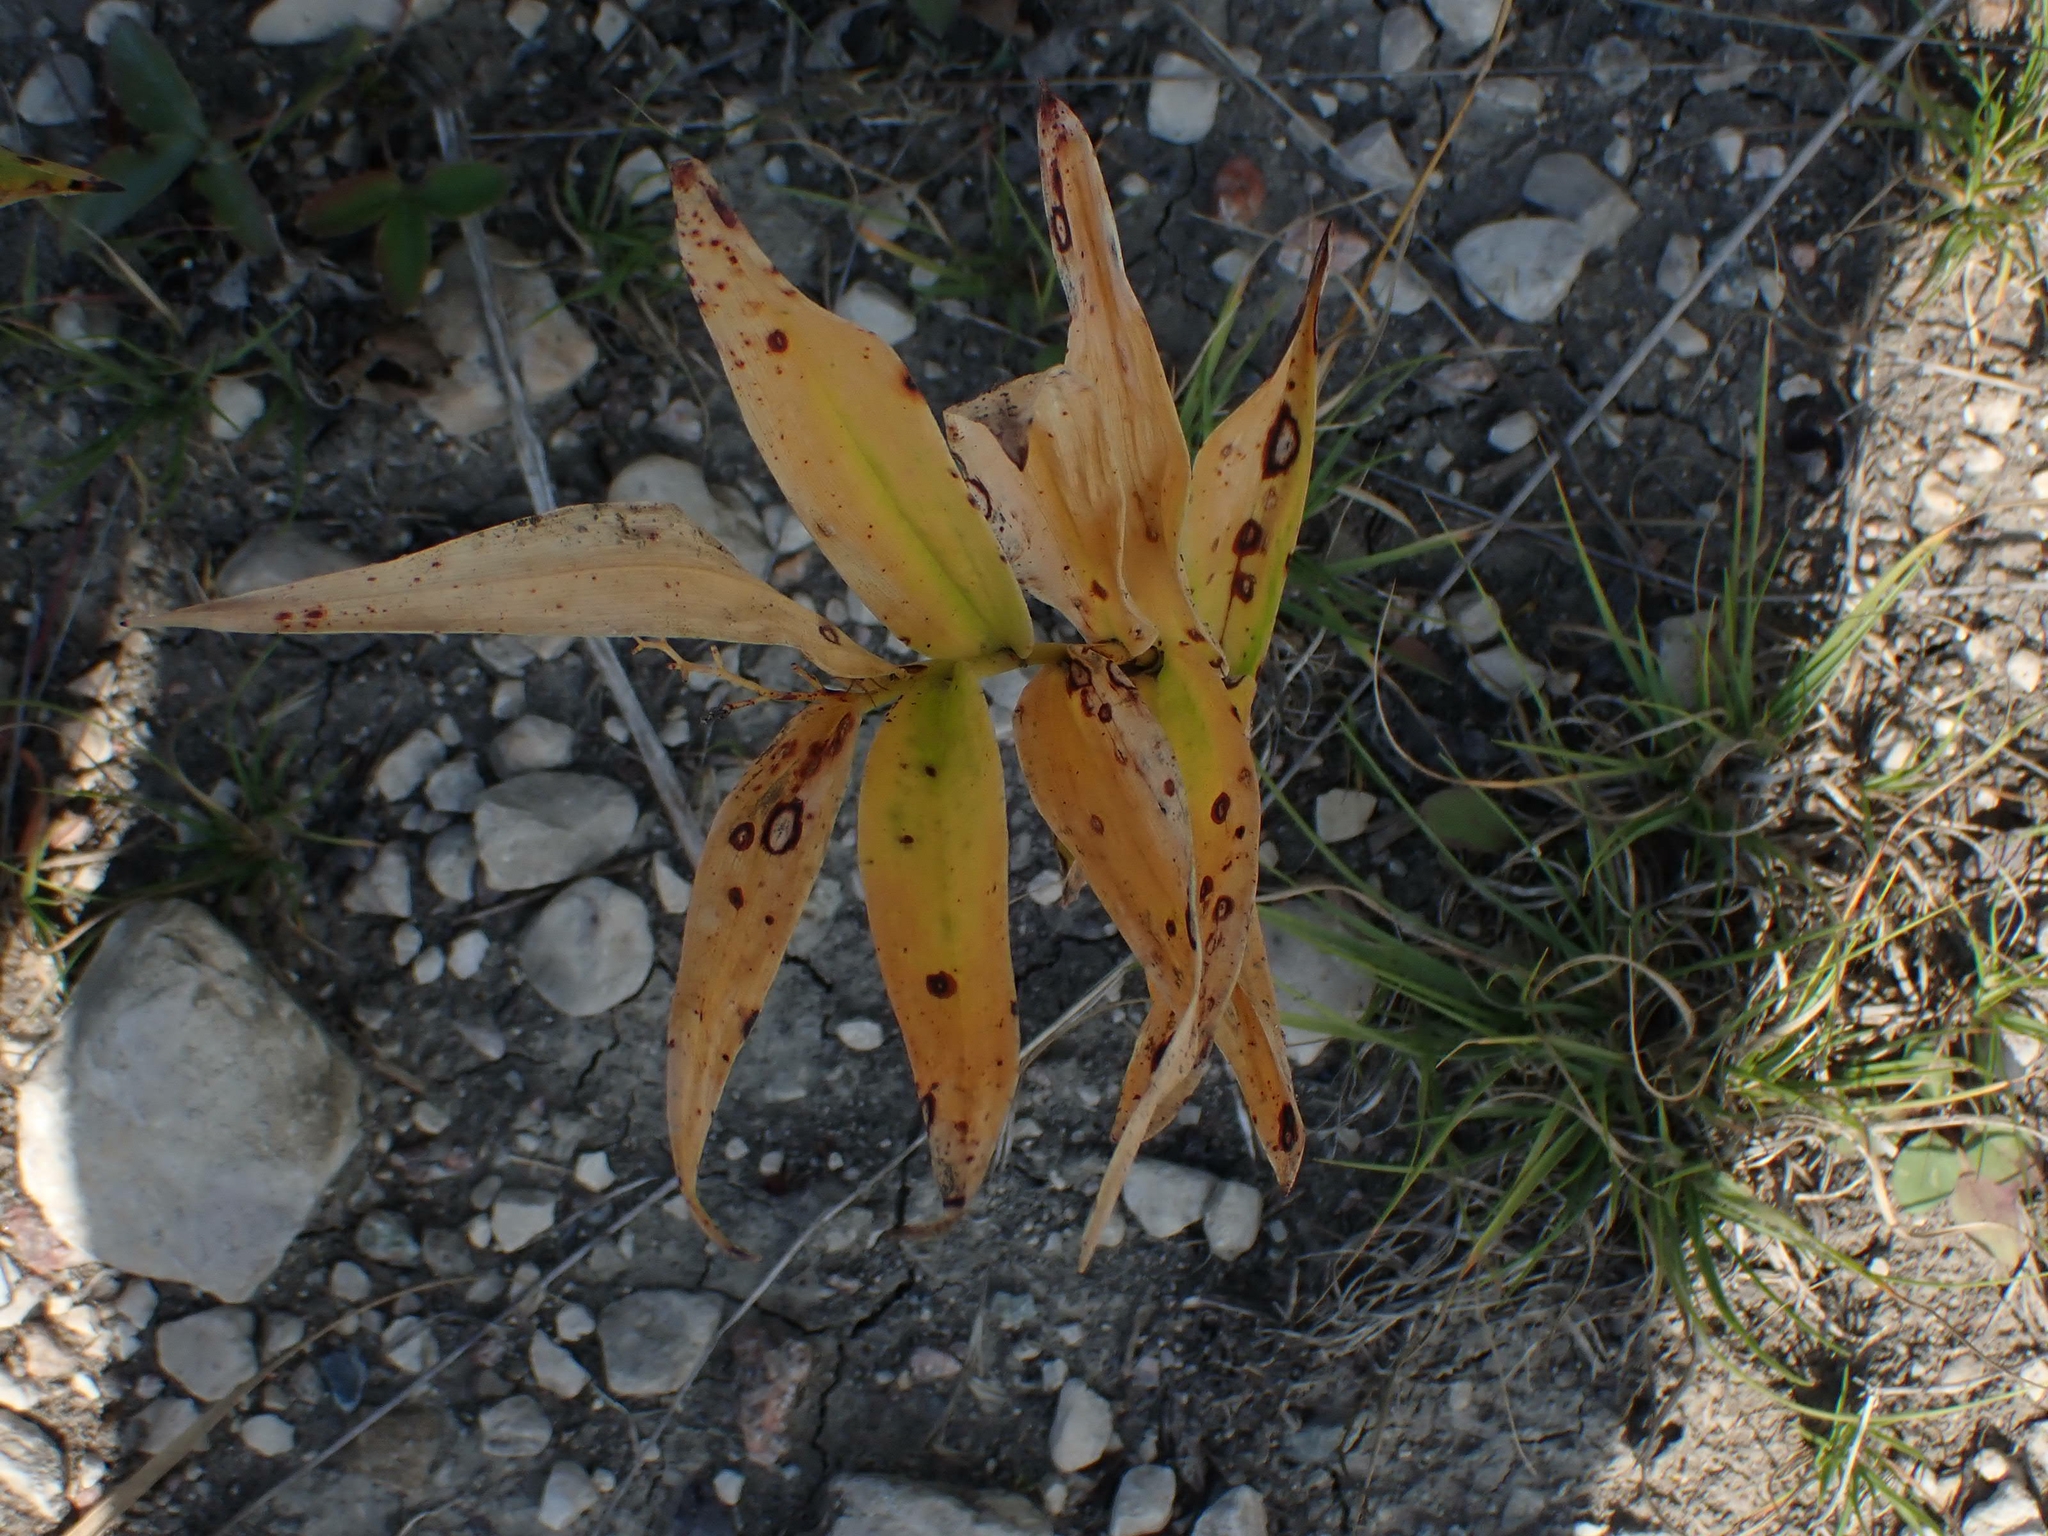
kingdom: Plantae
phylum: Tracheophyta
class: Liliopsida
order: Asparagales
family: Asparagaceae
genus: Maianthemum
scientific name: Maianthemum stellatum
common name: Little false solomon's seal
